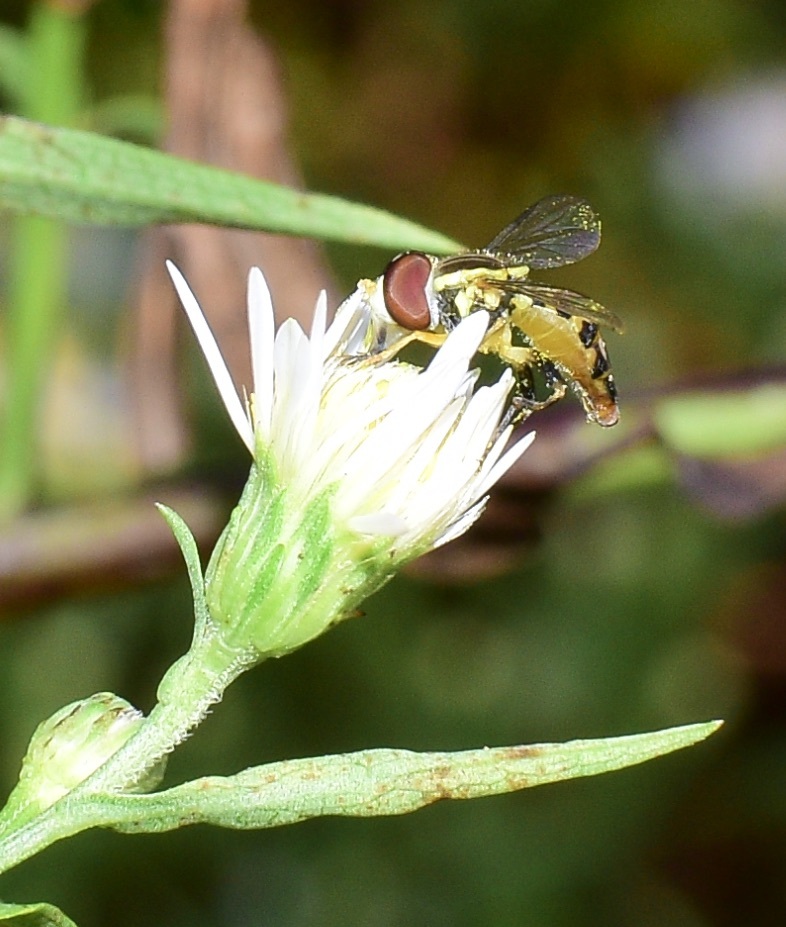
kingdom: Animalia
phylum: Arthropoda
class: Insecta
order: Diptera
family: Syrphidae
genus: Toxomerus
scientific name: Toxomerus geminatus
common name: Eastern calligrapher
